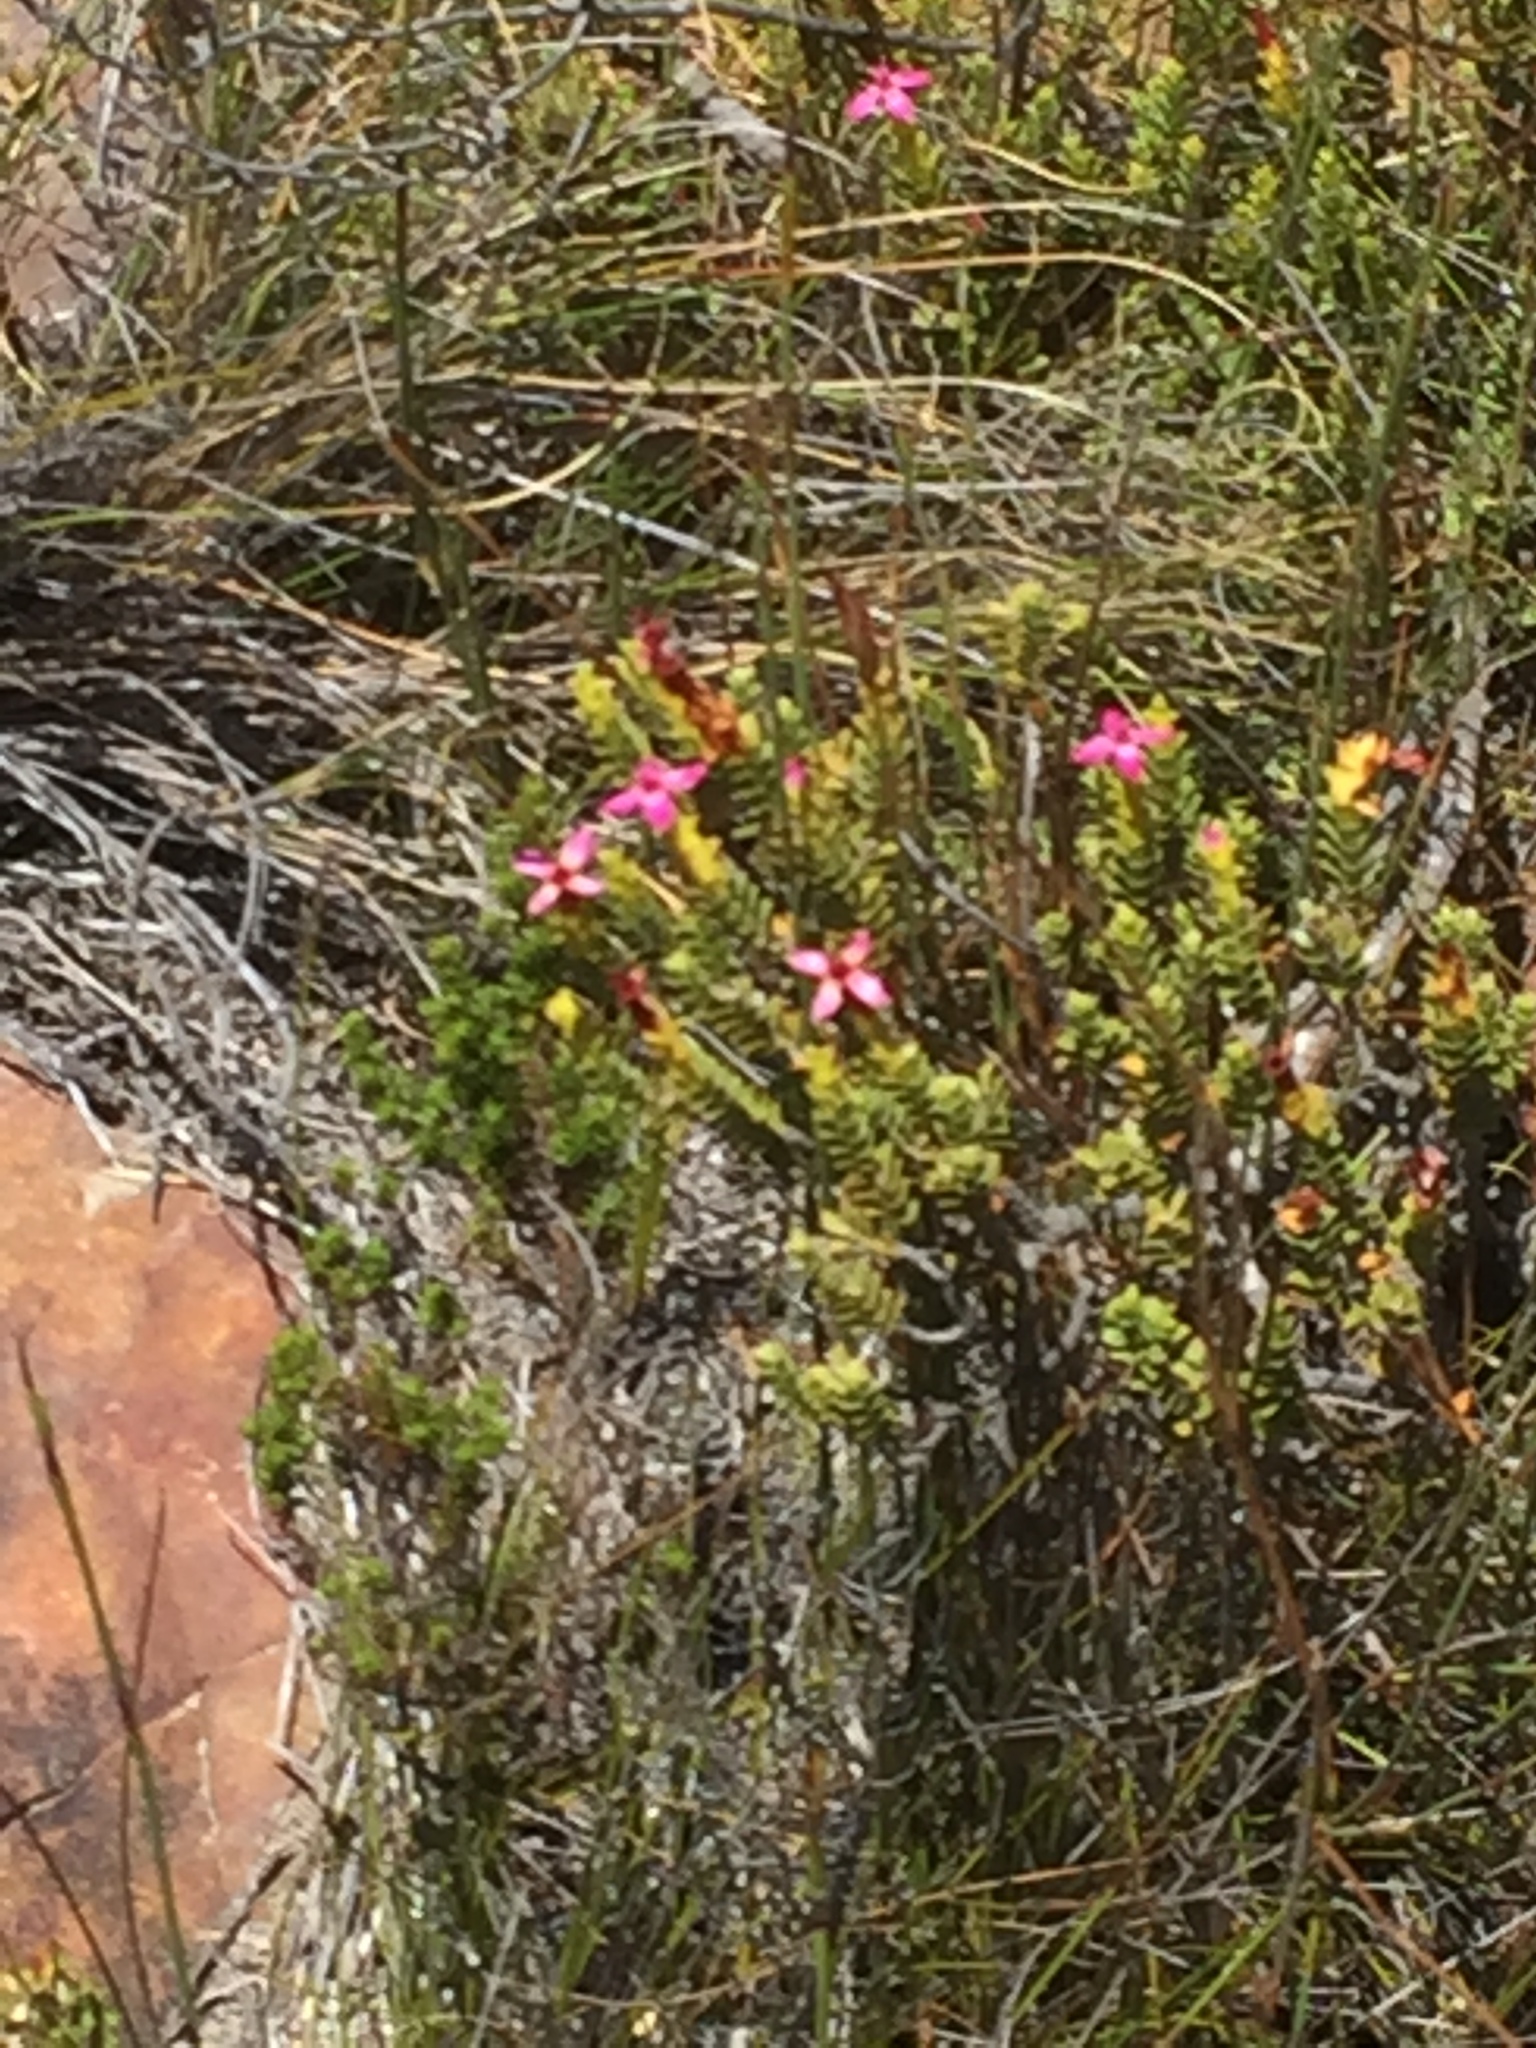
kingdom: Plantae
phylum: Tracheophyta
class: Magnoliopsida
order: Myrtales
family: Penaeaceae
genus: Saltera
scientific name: Saltera sarcocolla
